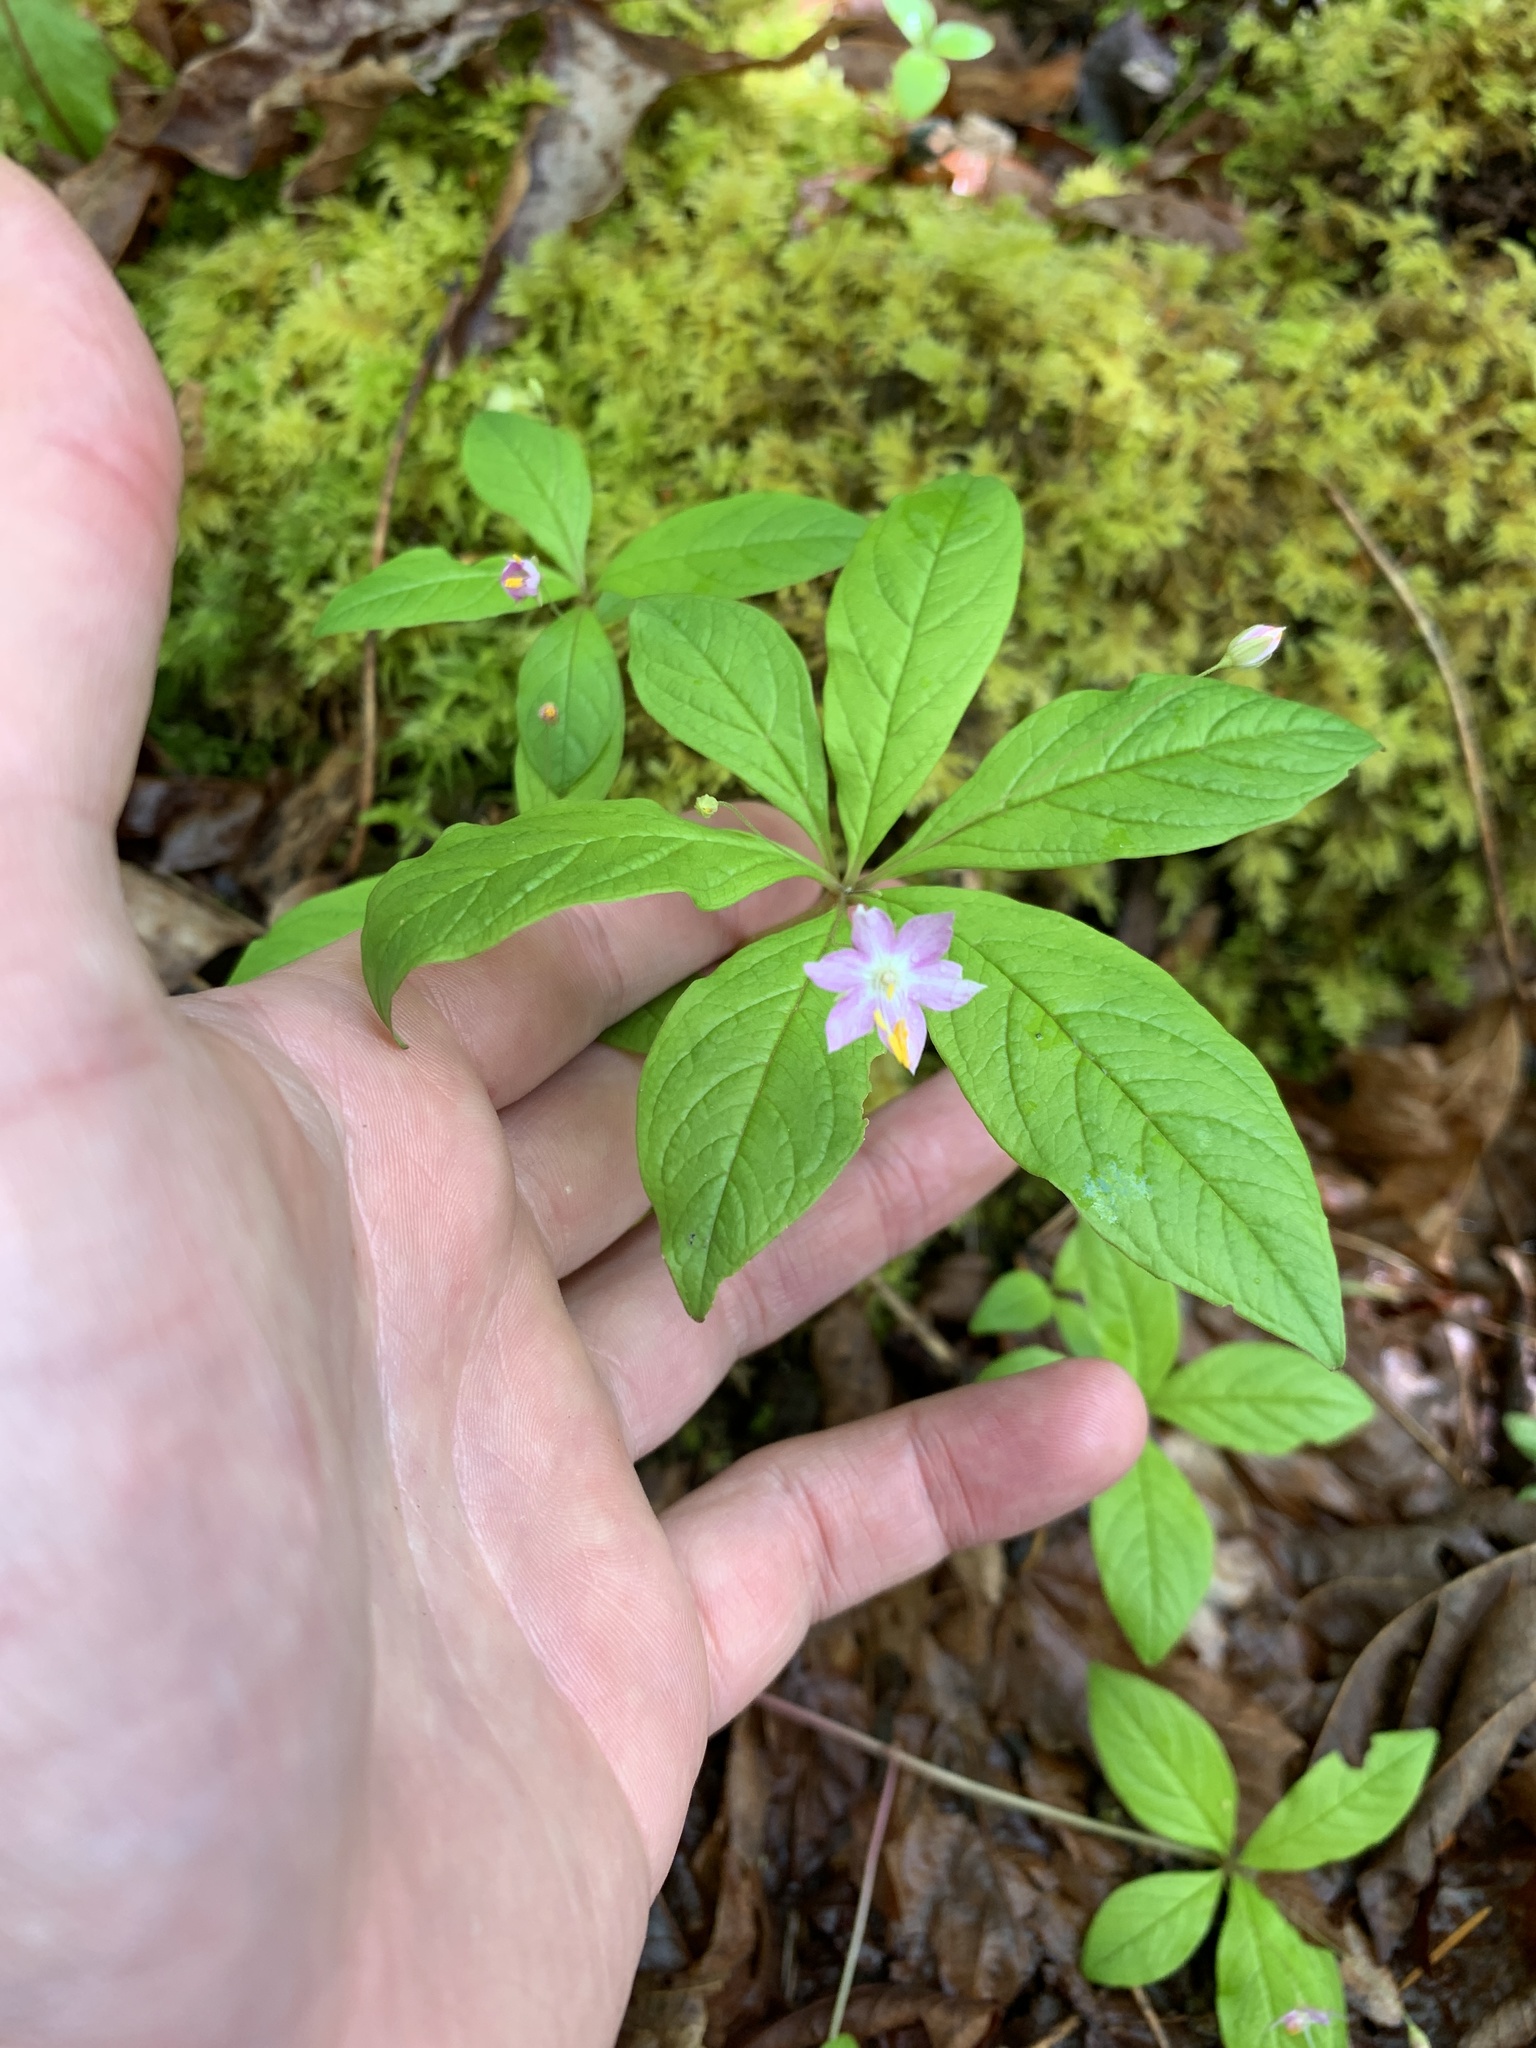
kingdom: Plantae
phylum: Tracheophyta
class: Magnoliopsida
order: Ericales
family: Primulaceae
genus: Lysimachia
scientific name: Lysimachia latifolia
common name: Pacific starflower
